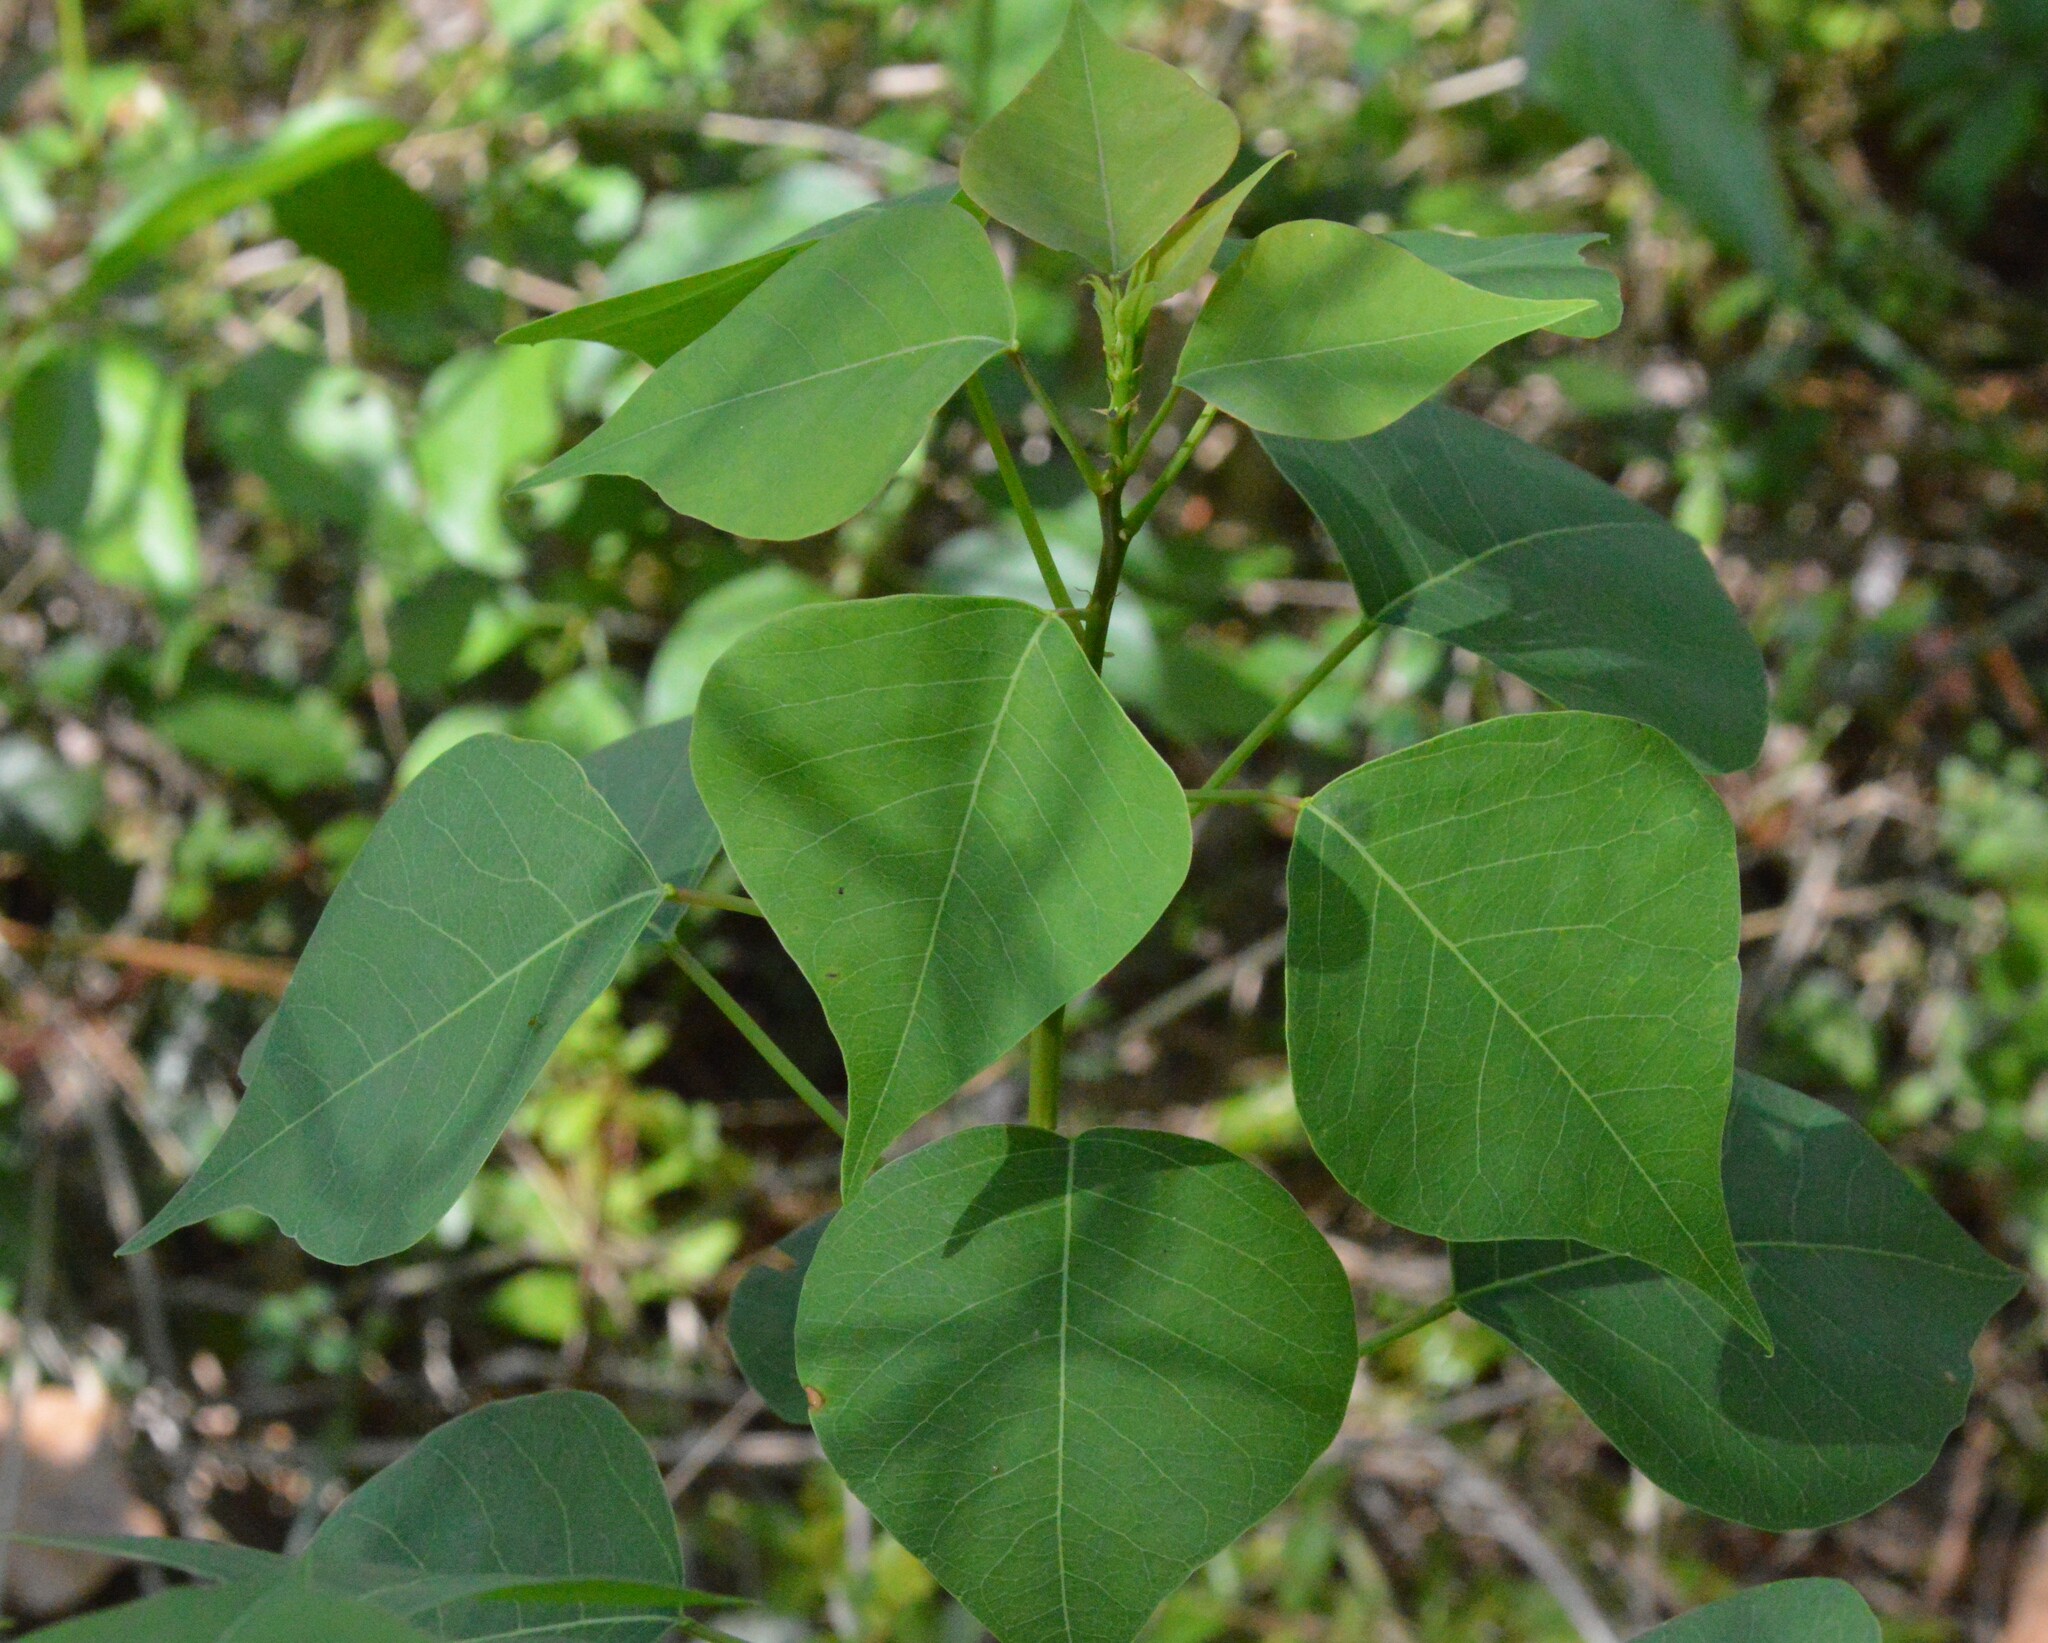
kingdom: Plantae
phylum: Tracheophyta
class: Magnoliopsida
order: Malpighiales
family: Euphorbiaceae
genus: Triadica
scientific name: Triadica sebifera
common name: Chinese tallow
